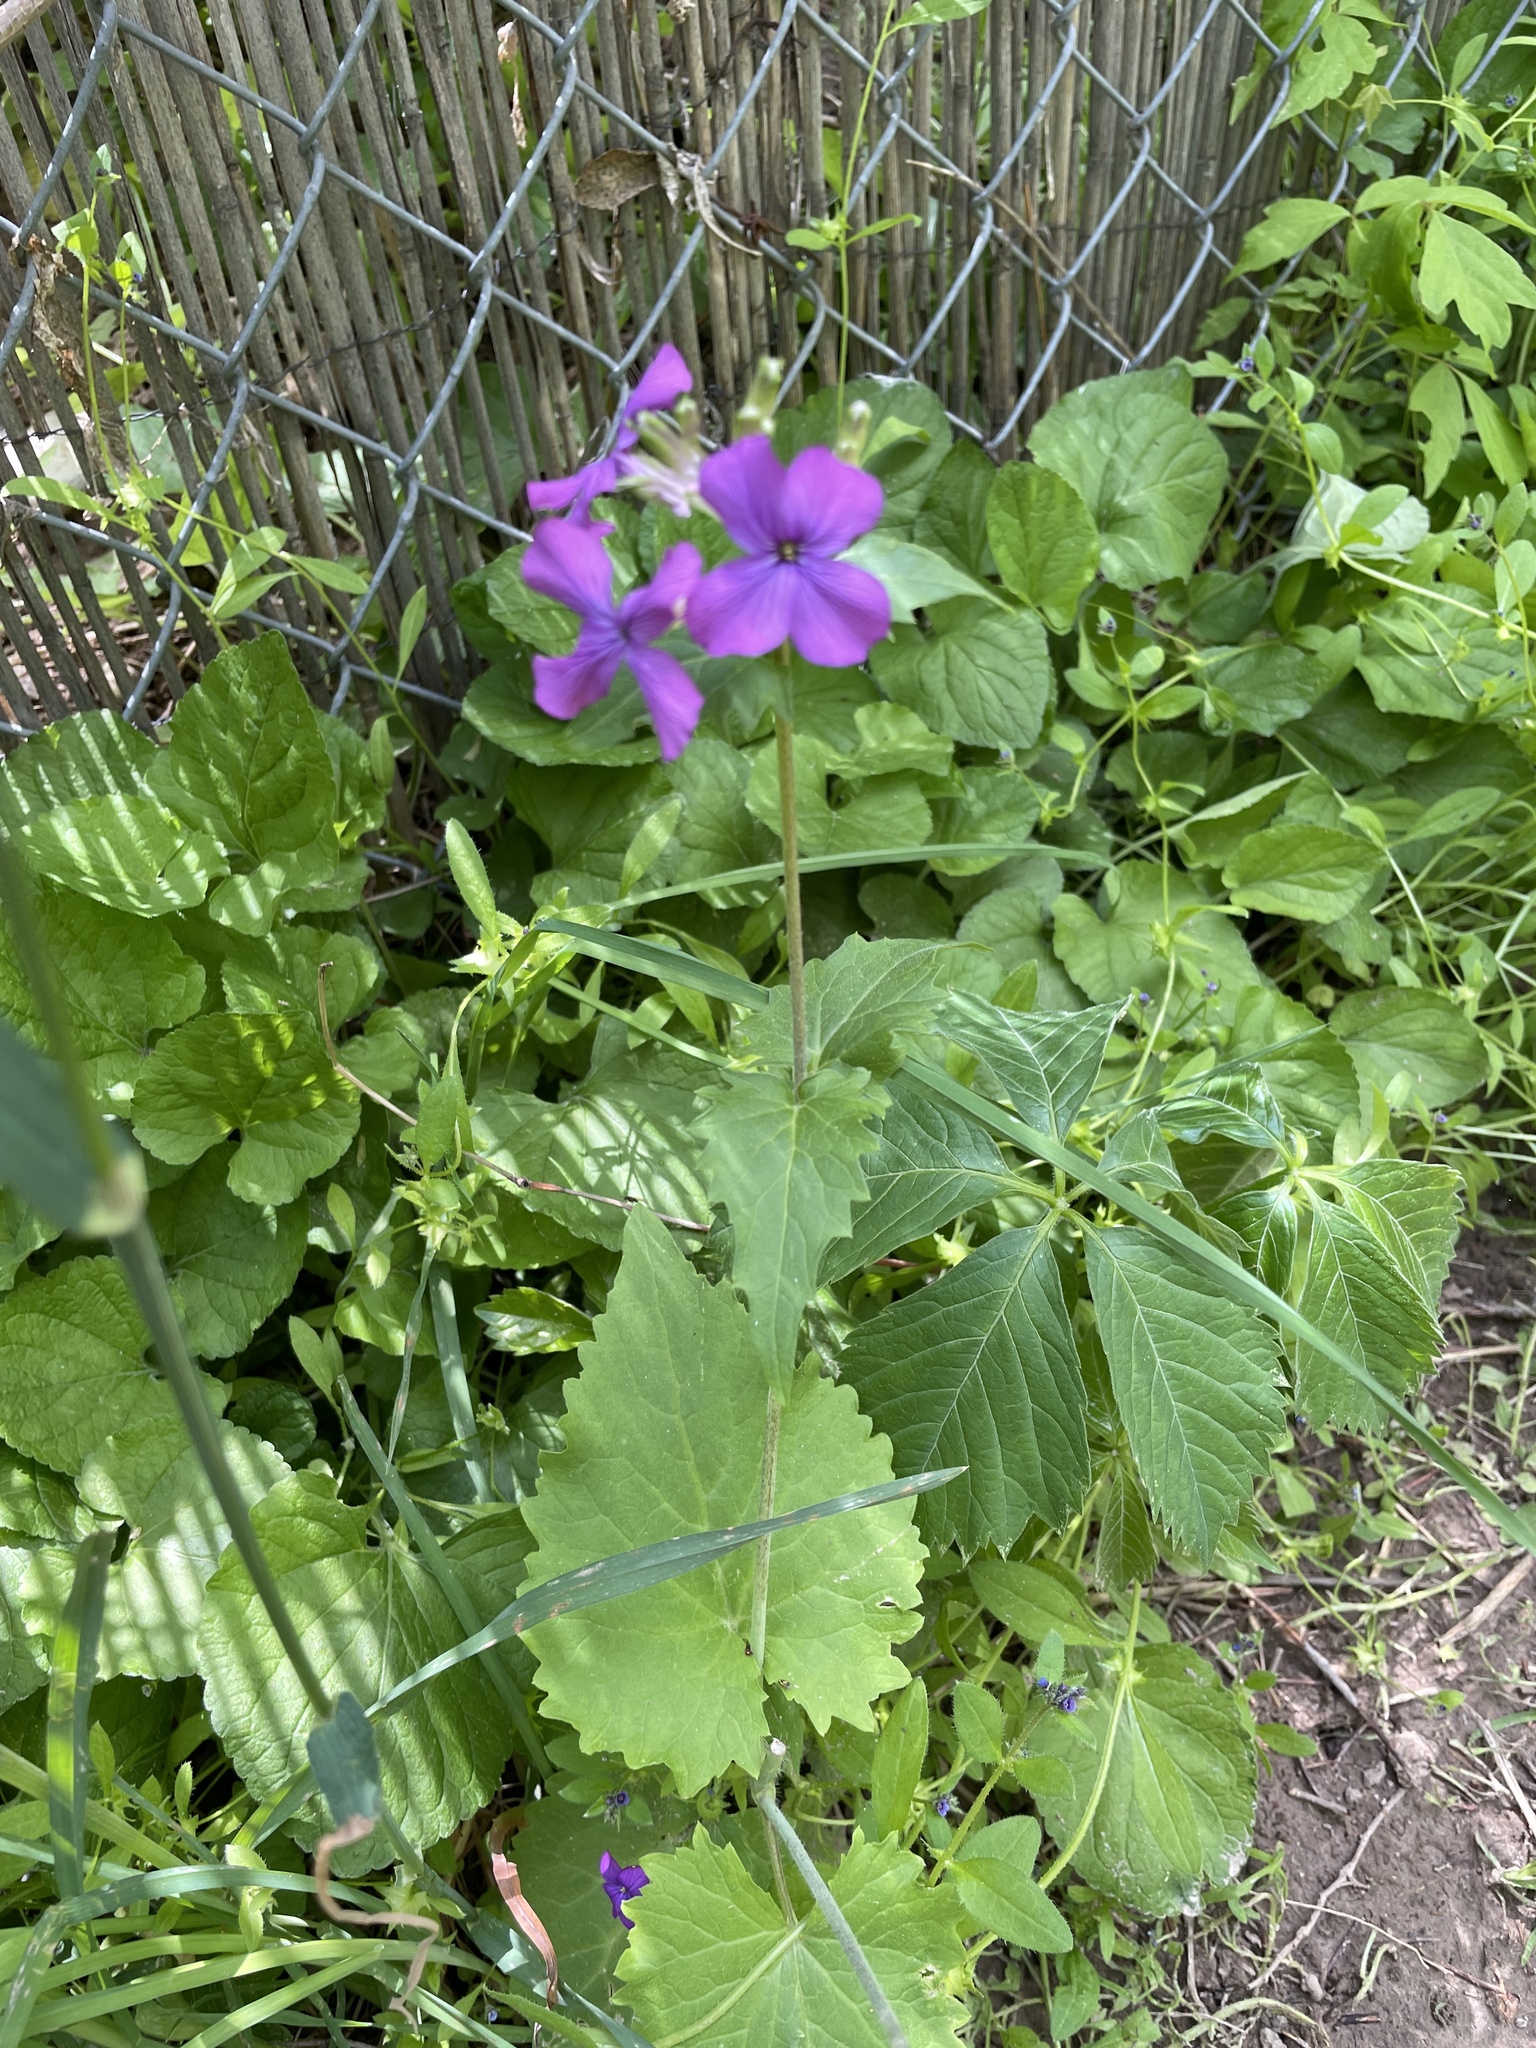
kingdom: Plantae
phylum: Tracheophyta
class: Magnoliopsida
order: Brassicales
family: Brassicaceae
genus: Lunaria
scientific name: Lunaria annua
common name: Honesty
